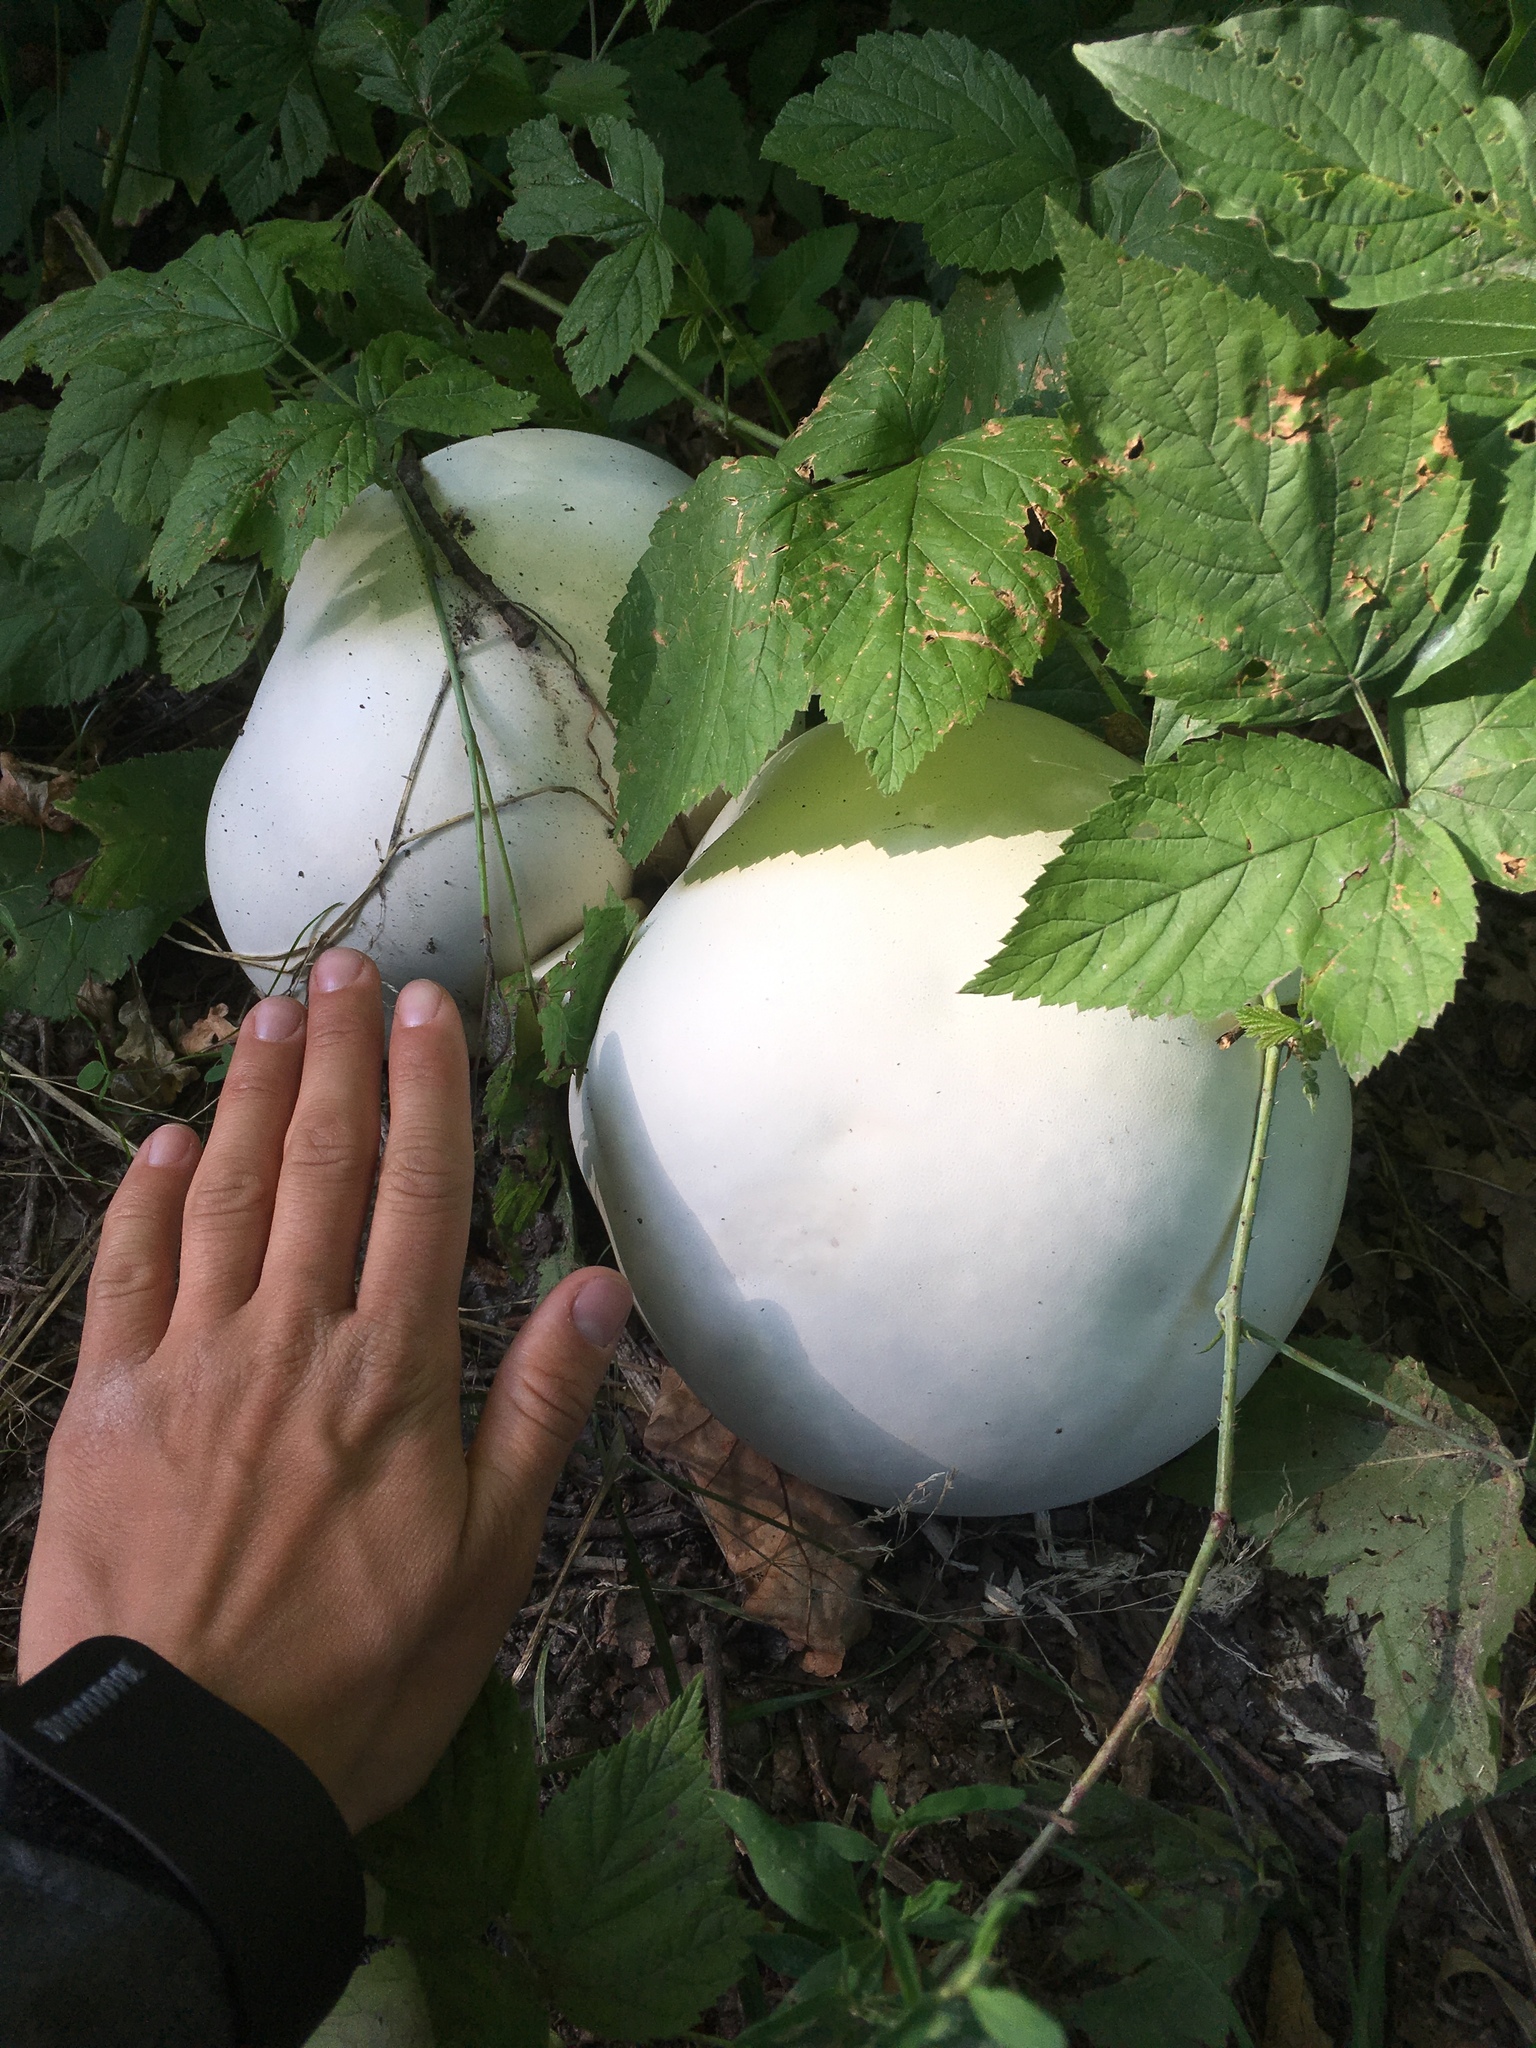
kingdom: Fungi
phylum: Basidiomycota
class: Agaricomycetes
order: Agaricales
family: Lycoperdaceae
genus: Calvatia
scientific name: Calvatia gigantea
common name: Giant puffball
